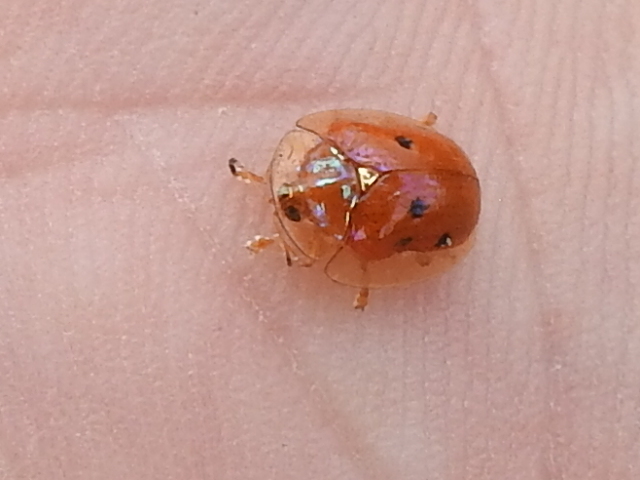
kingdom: Animalia
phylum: Arthropoda
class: Insecta
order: Coleoptera
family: Chrysomelidae
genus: Charidotella
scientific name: Charidotella sexpunctata
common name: Golden tortoise beetle
